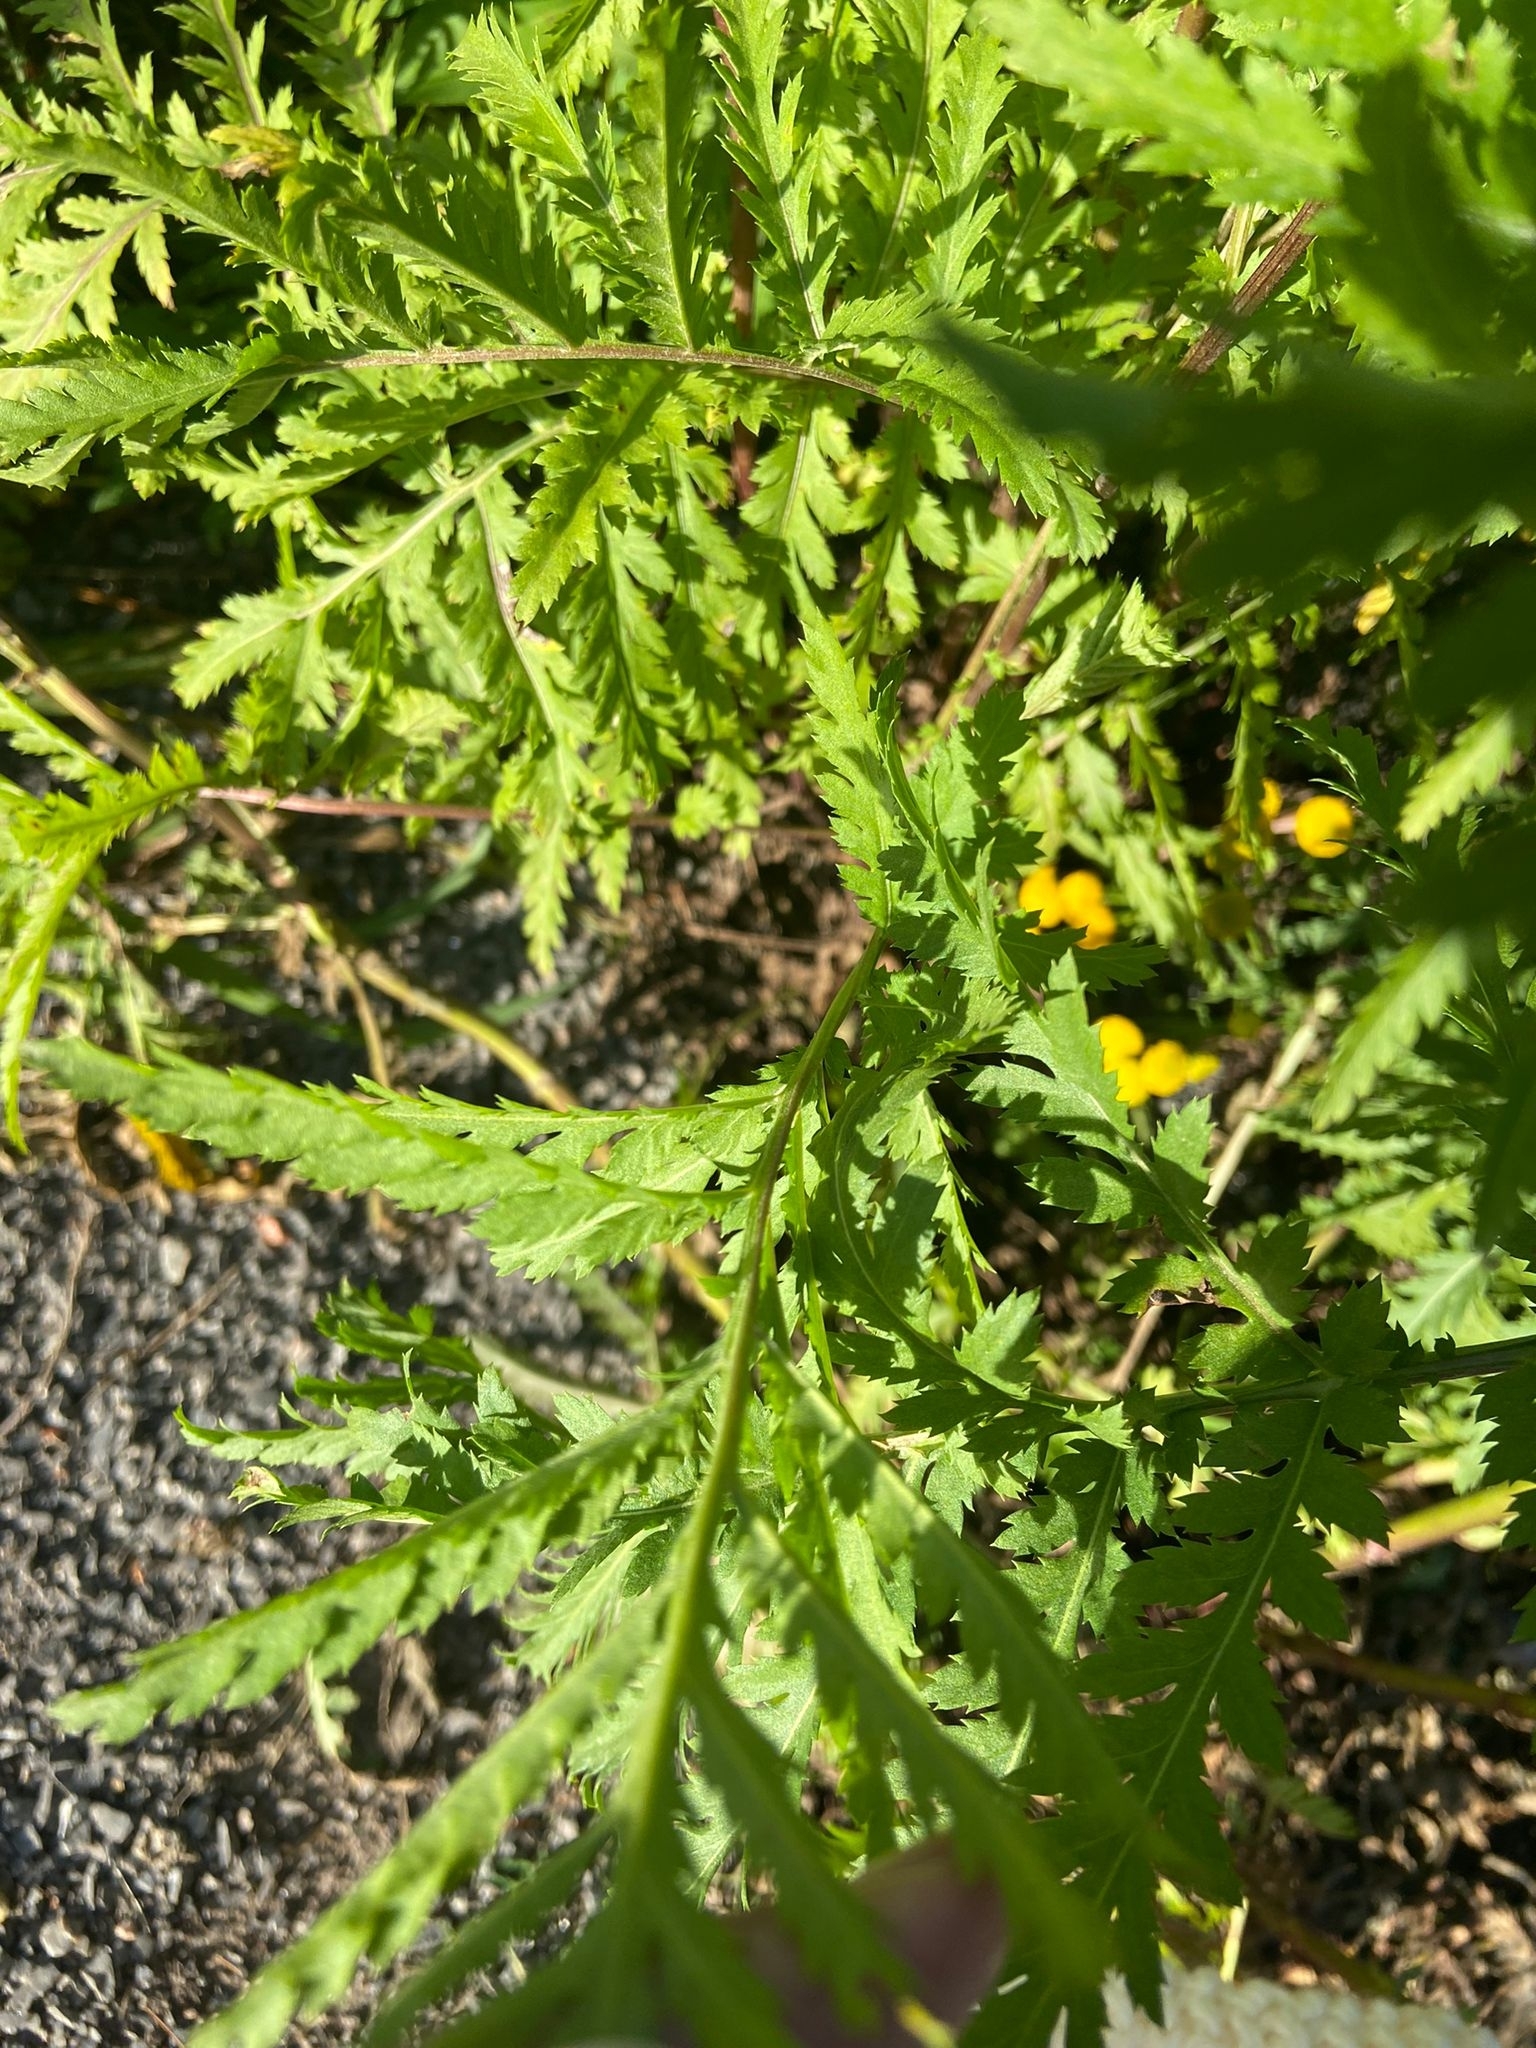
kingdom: Plantae
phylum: Tracheophyta
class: Magnoliopsida
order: Asterales
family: Asteraceae
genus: Tanacetum
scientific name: Tanacetum vulgare
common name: Common tansy
